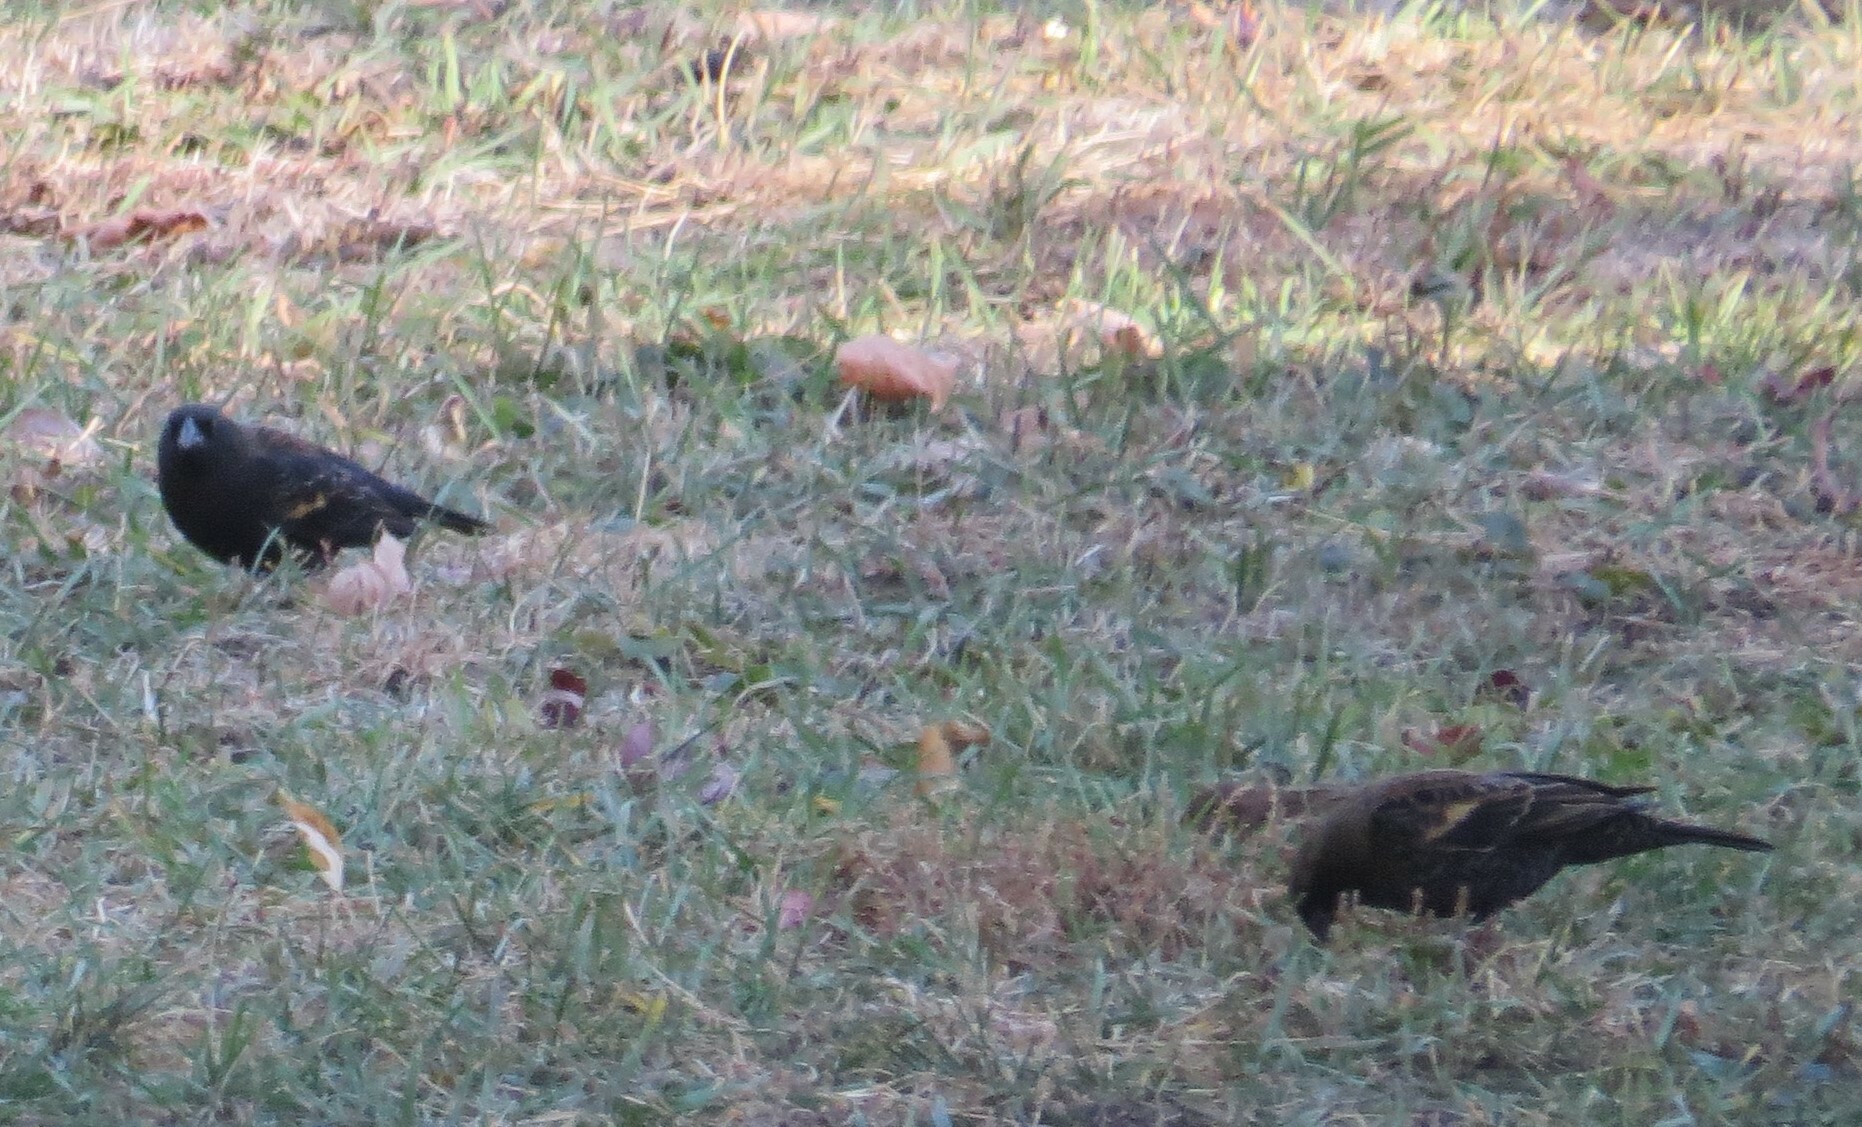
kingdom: Animalia
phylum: Chordata
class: Aves
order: Passeriformes
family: Icteridae
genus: Agelaius
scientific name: Agelaius phoeniceus
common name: Red-winged blackbird
